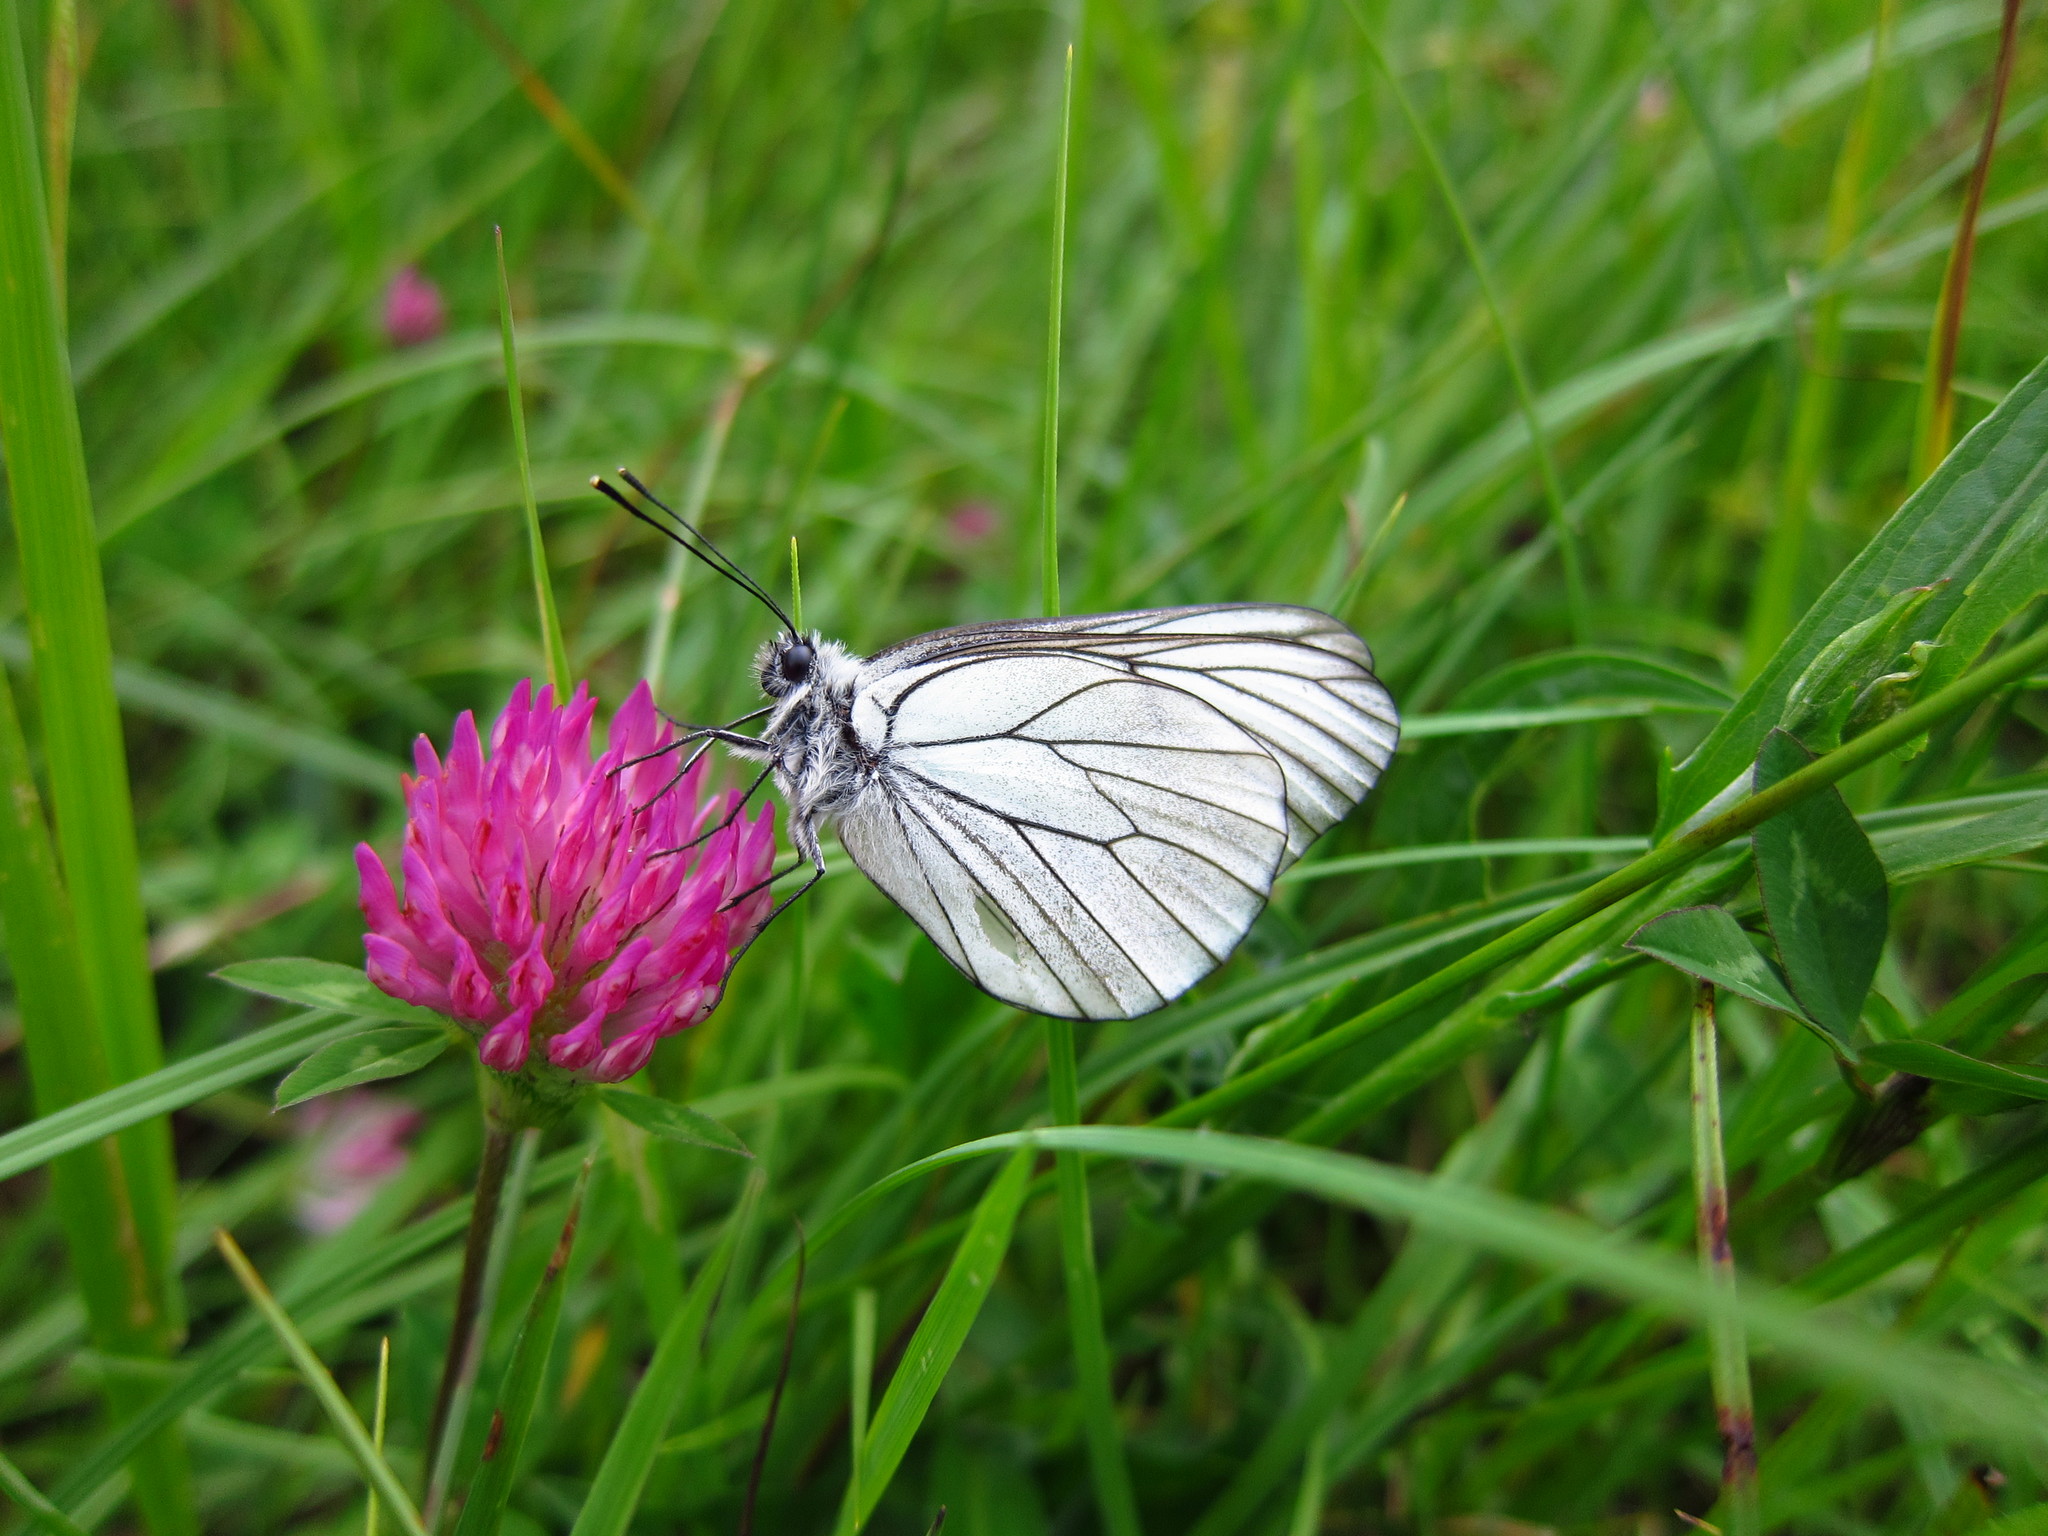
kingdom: Animalia
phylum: Arthropoda
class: Insecta
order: Lepidoptera
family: Pieridae
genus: Aporia
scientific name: Aporia crataegi
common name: Black-veined white
